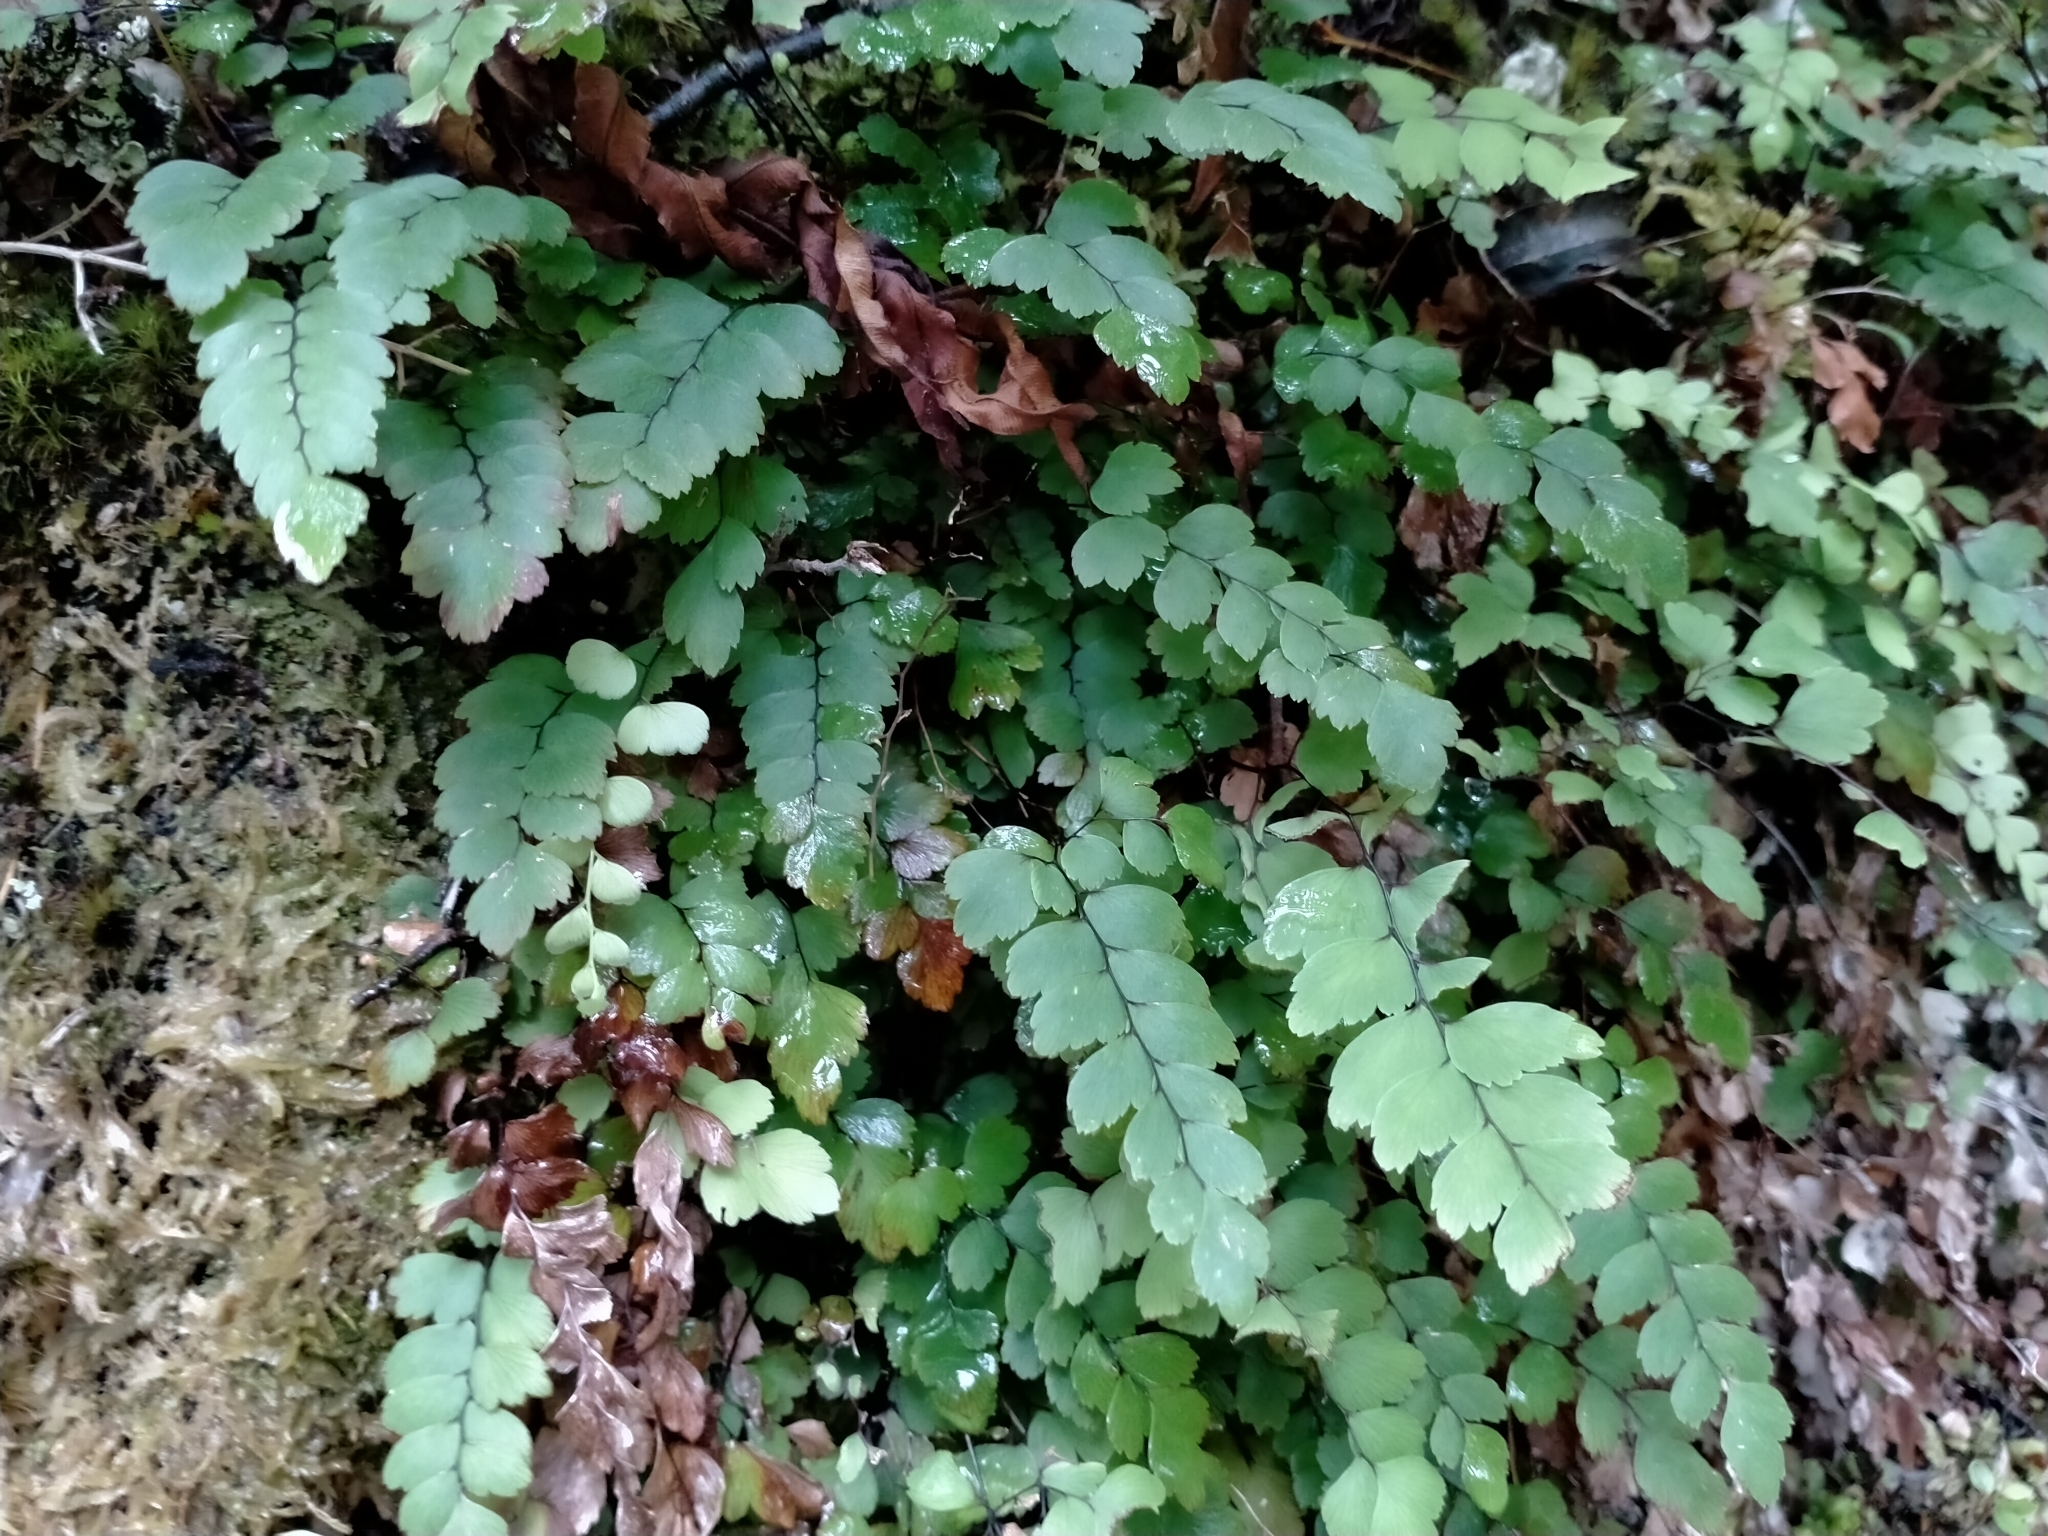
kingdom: Plantae
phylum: Tracheophyta
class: Polypodiopsida
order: Polypodiales
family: Pteridaceae
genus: Adiantum
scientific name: Adiantum cunninghamii
